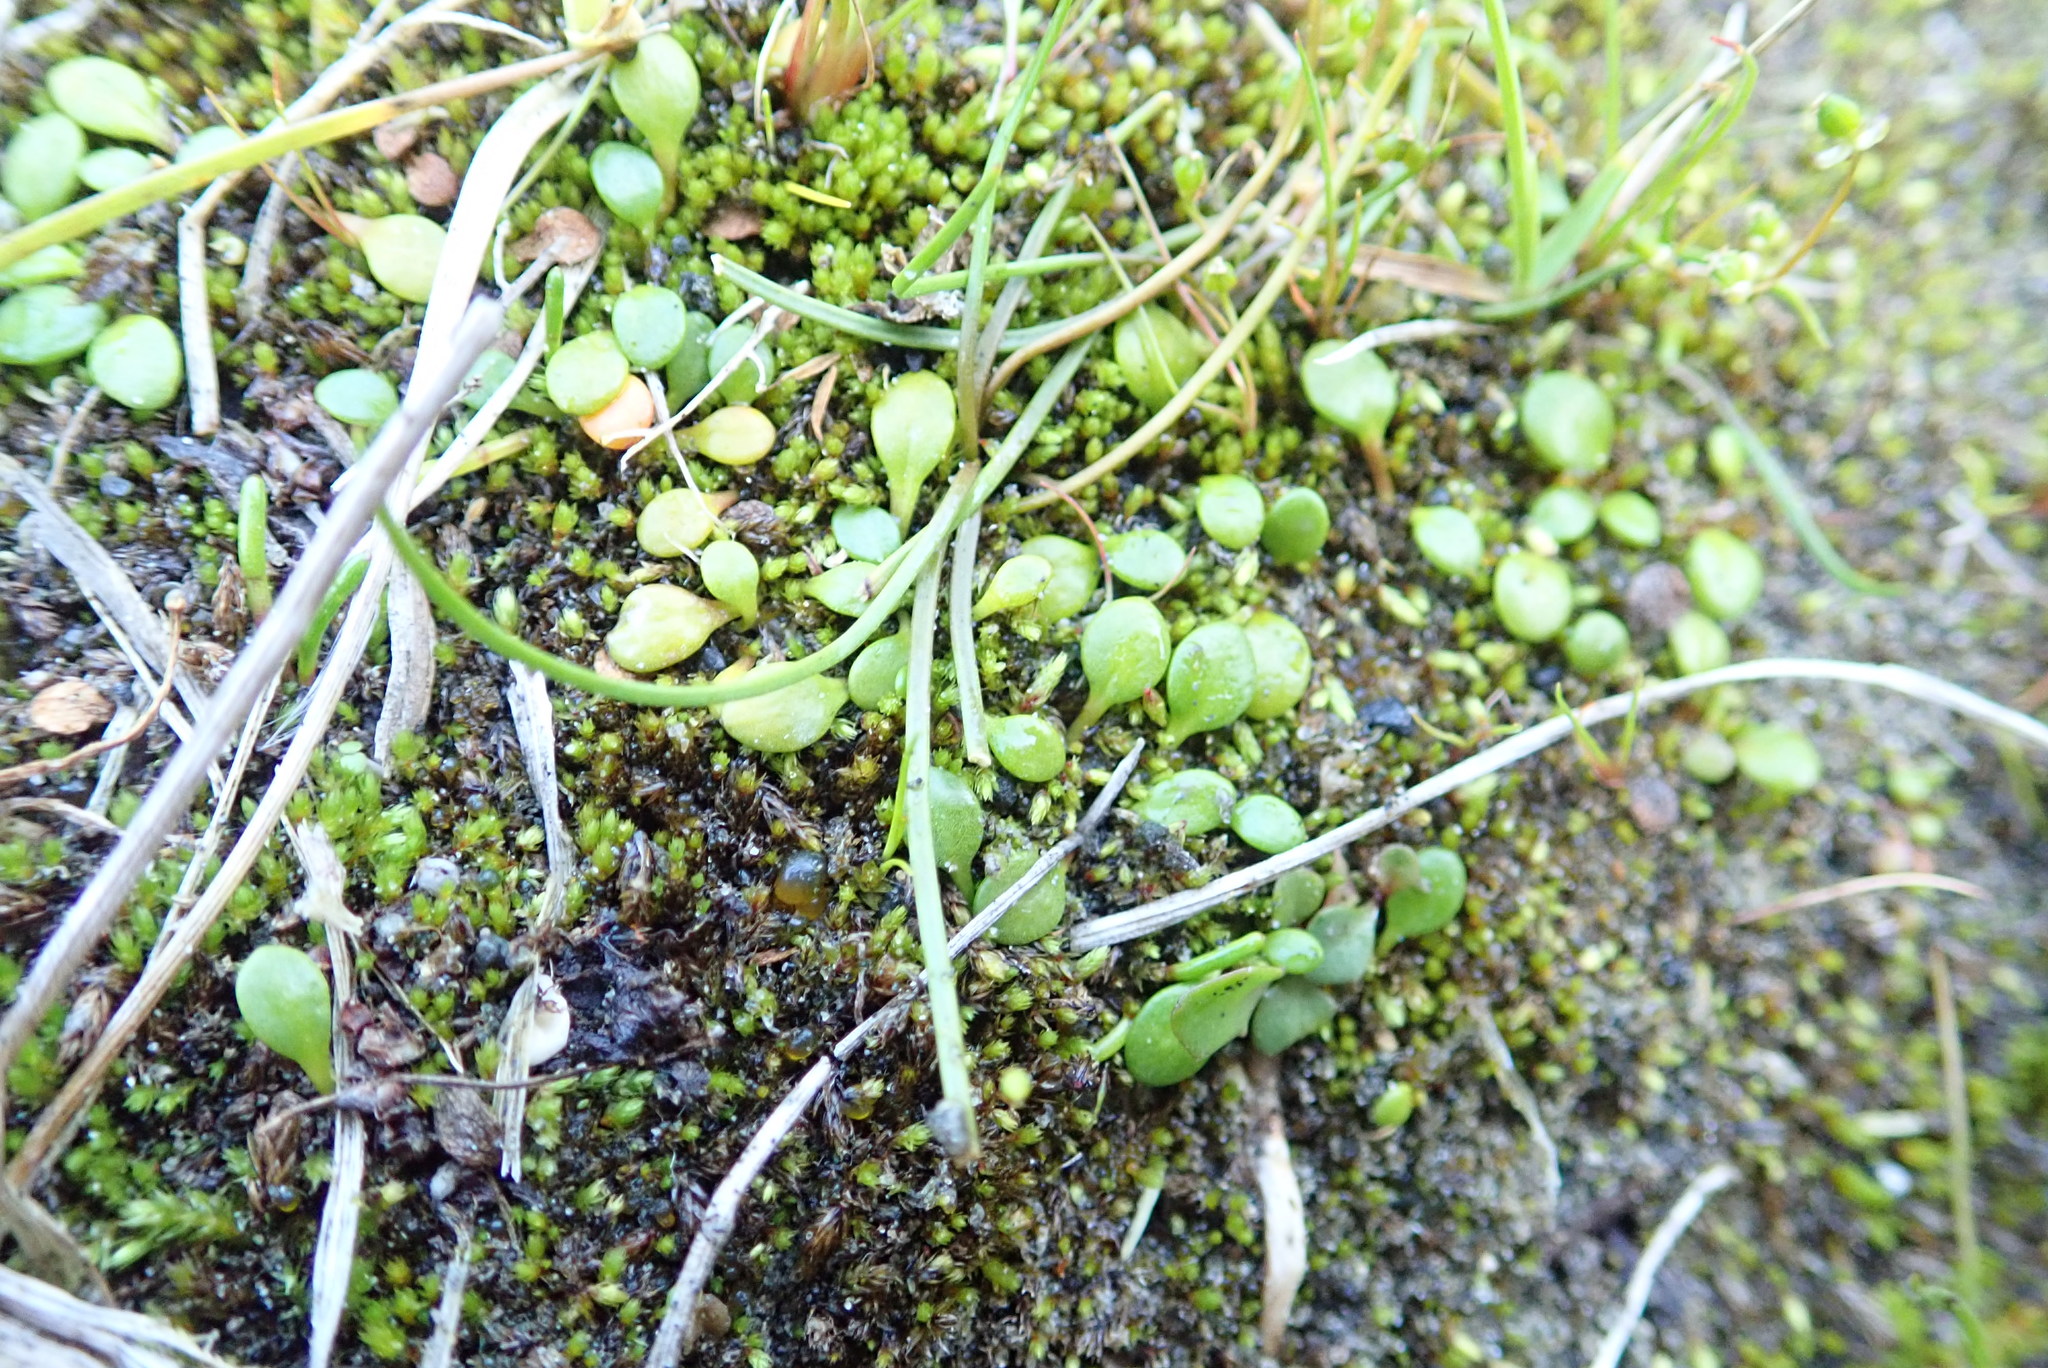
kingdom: Plantae
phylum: Tracheophyta
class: Magnoliopsida
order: Asterales
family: Goodeniaceae
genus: Goodenia
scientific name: Goodenia heenanii
